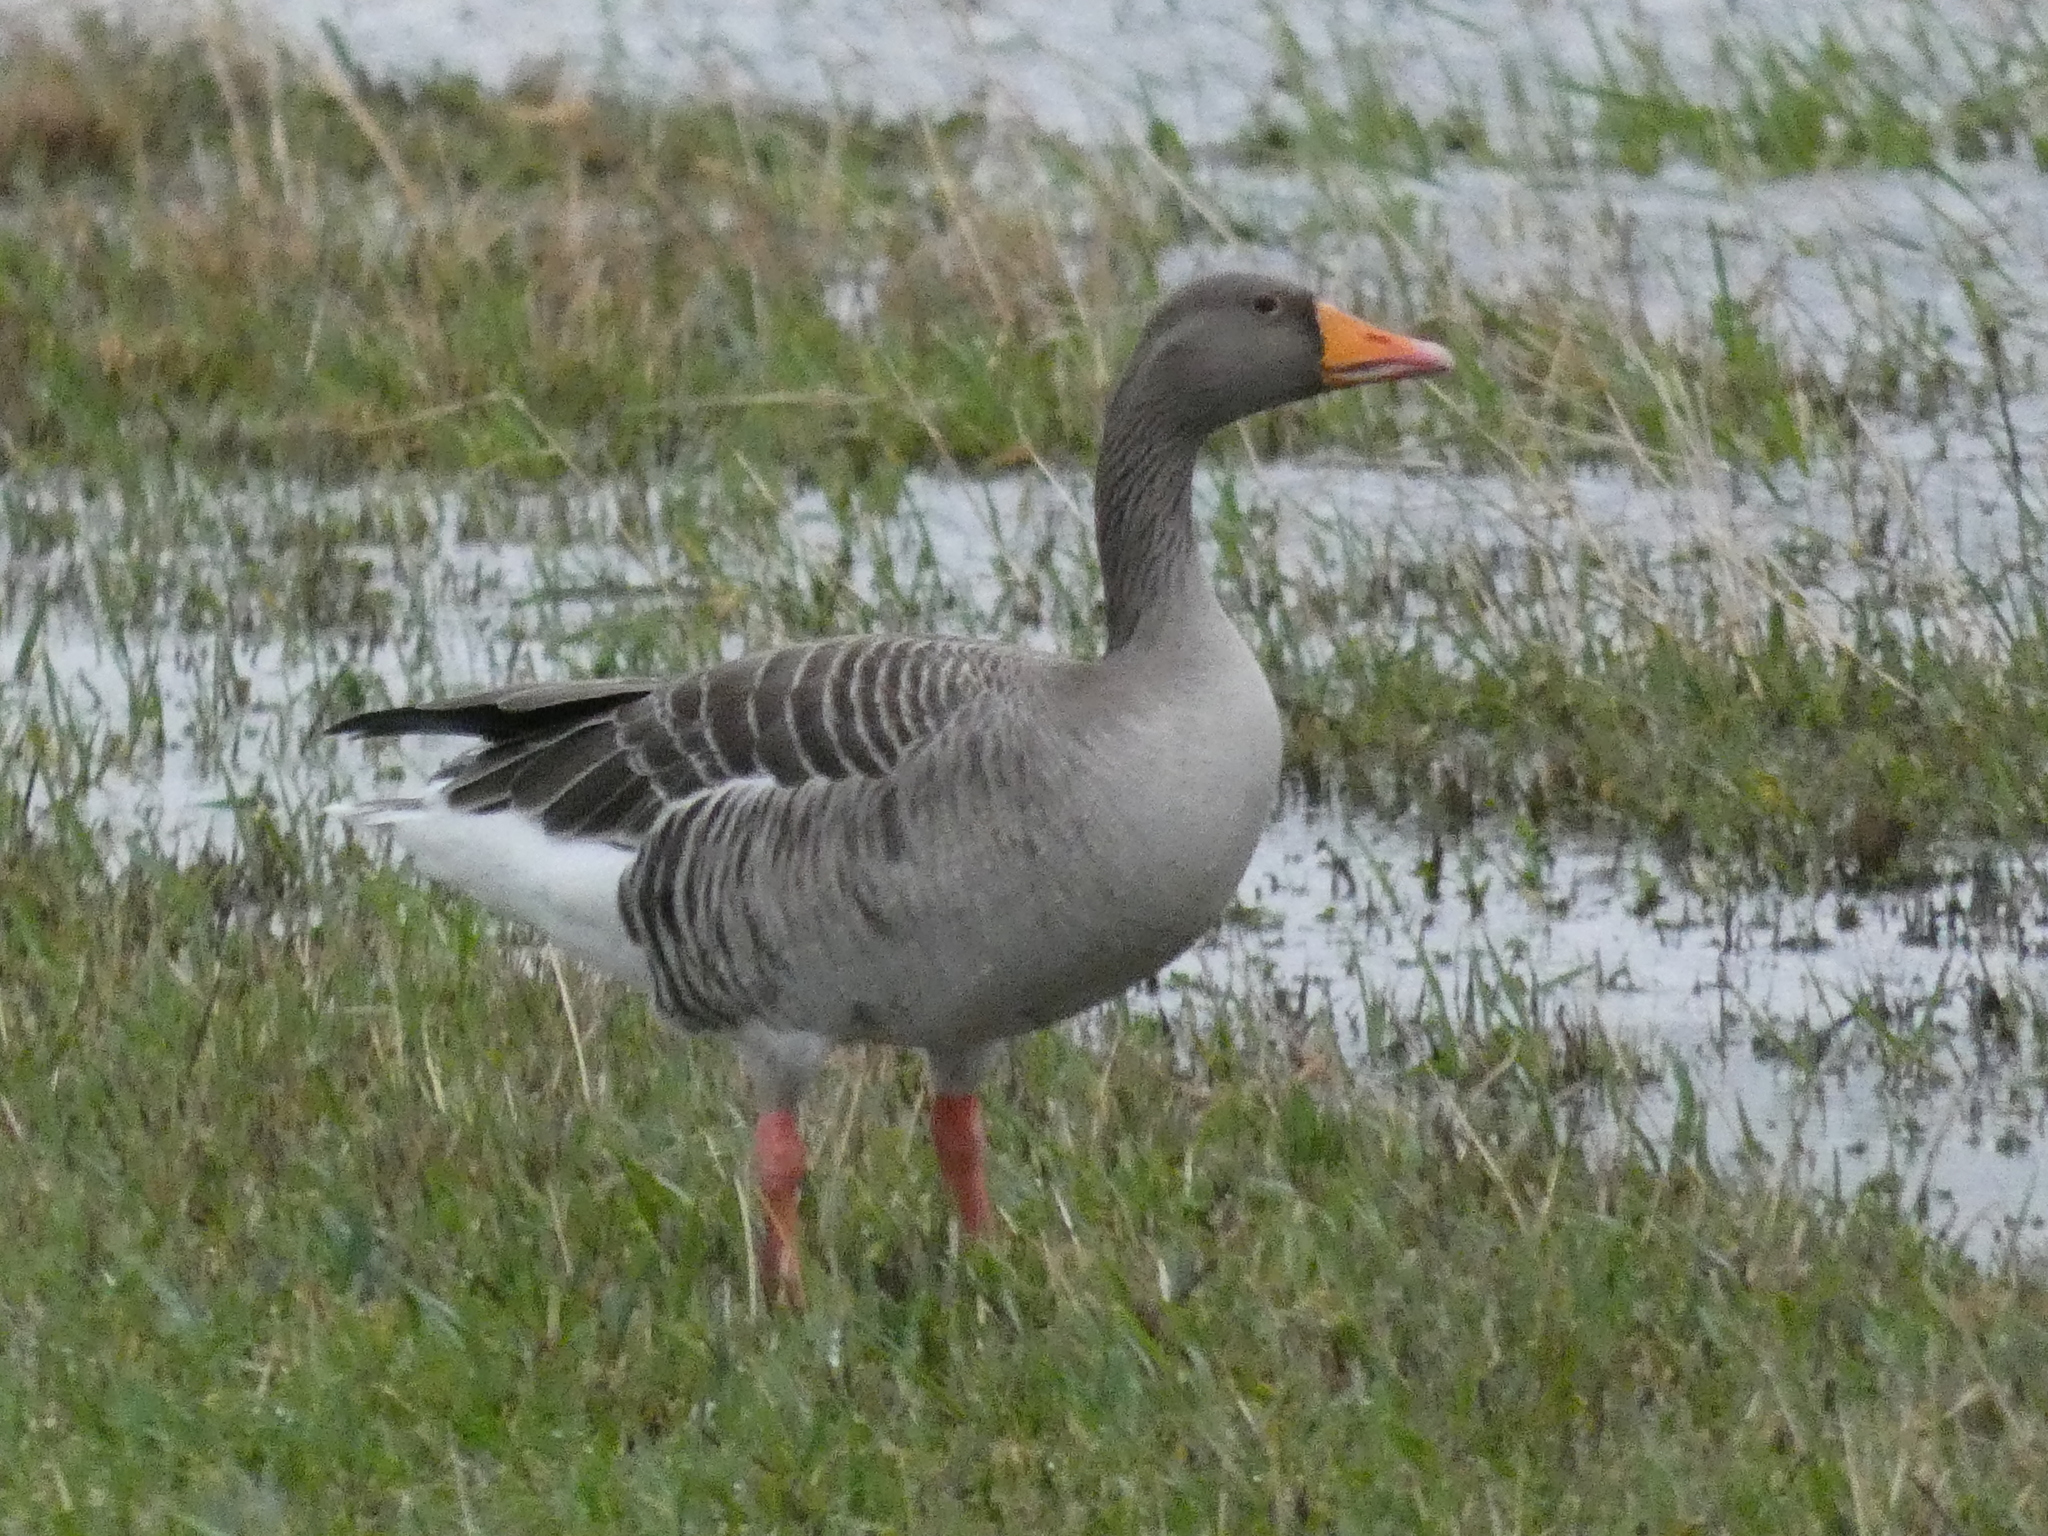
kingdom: Animalia
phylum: Chordata
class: Aves
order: Anseriformes
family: Anatidae
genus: Anser
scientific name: Anser anser
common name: Greylag goose
